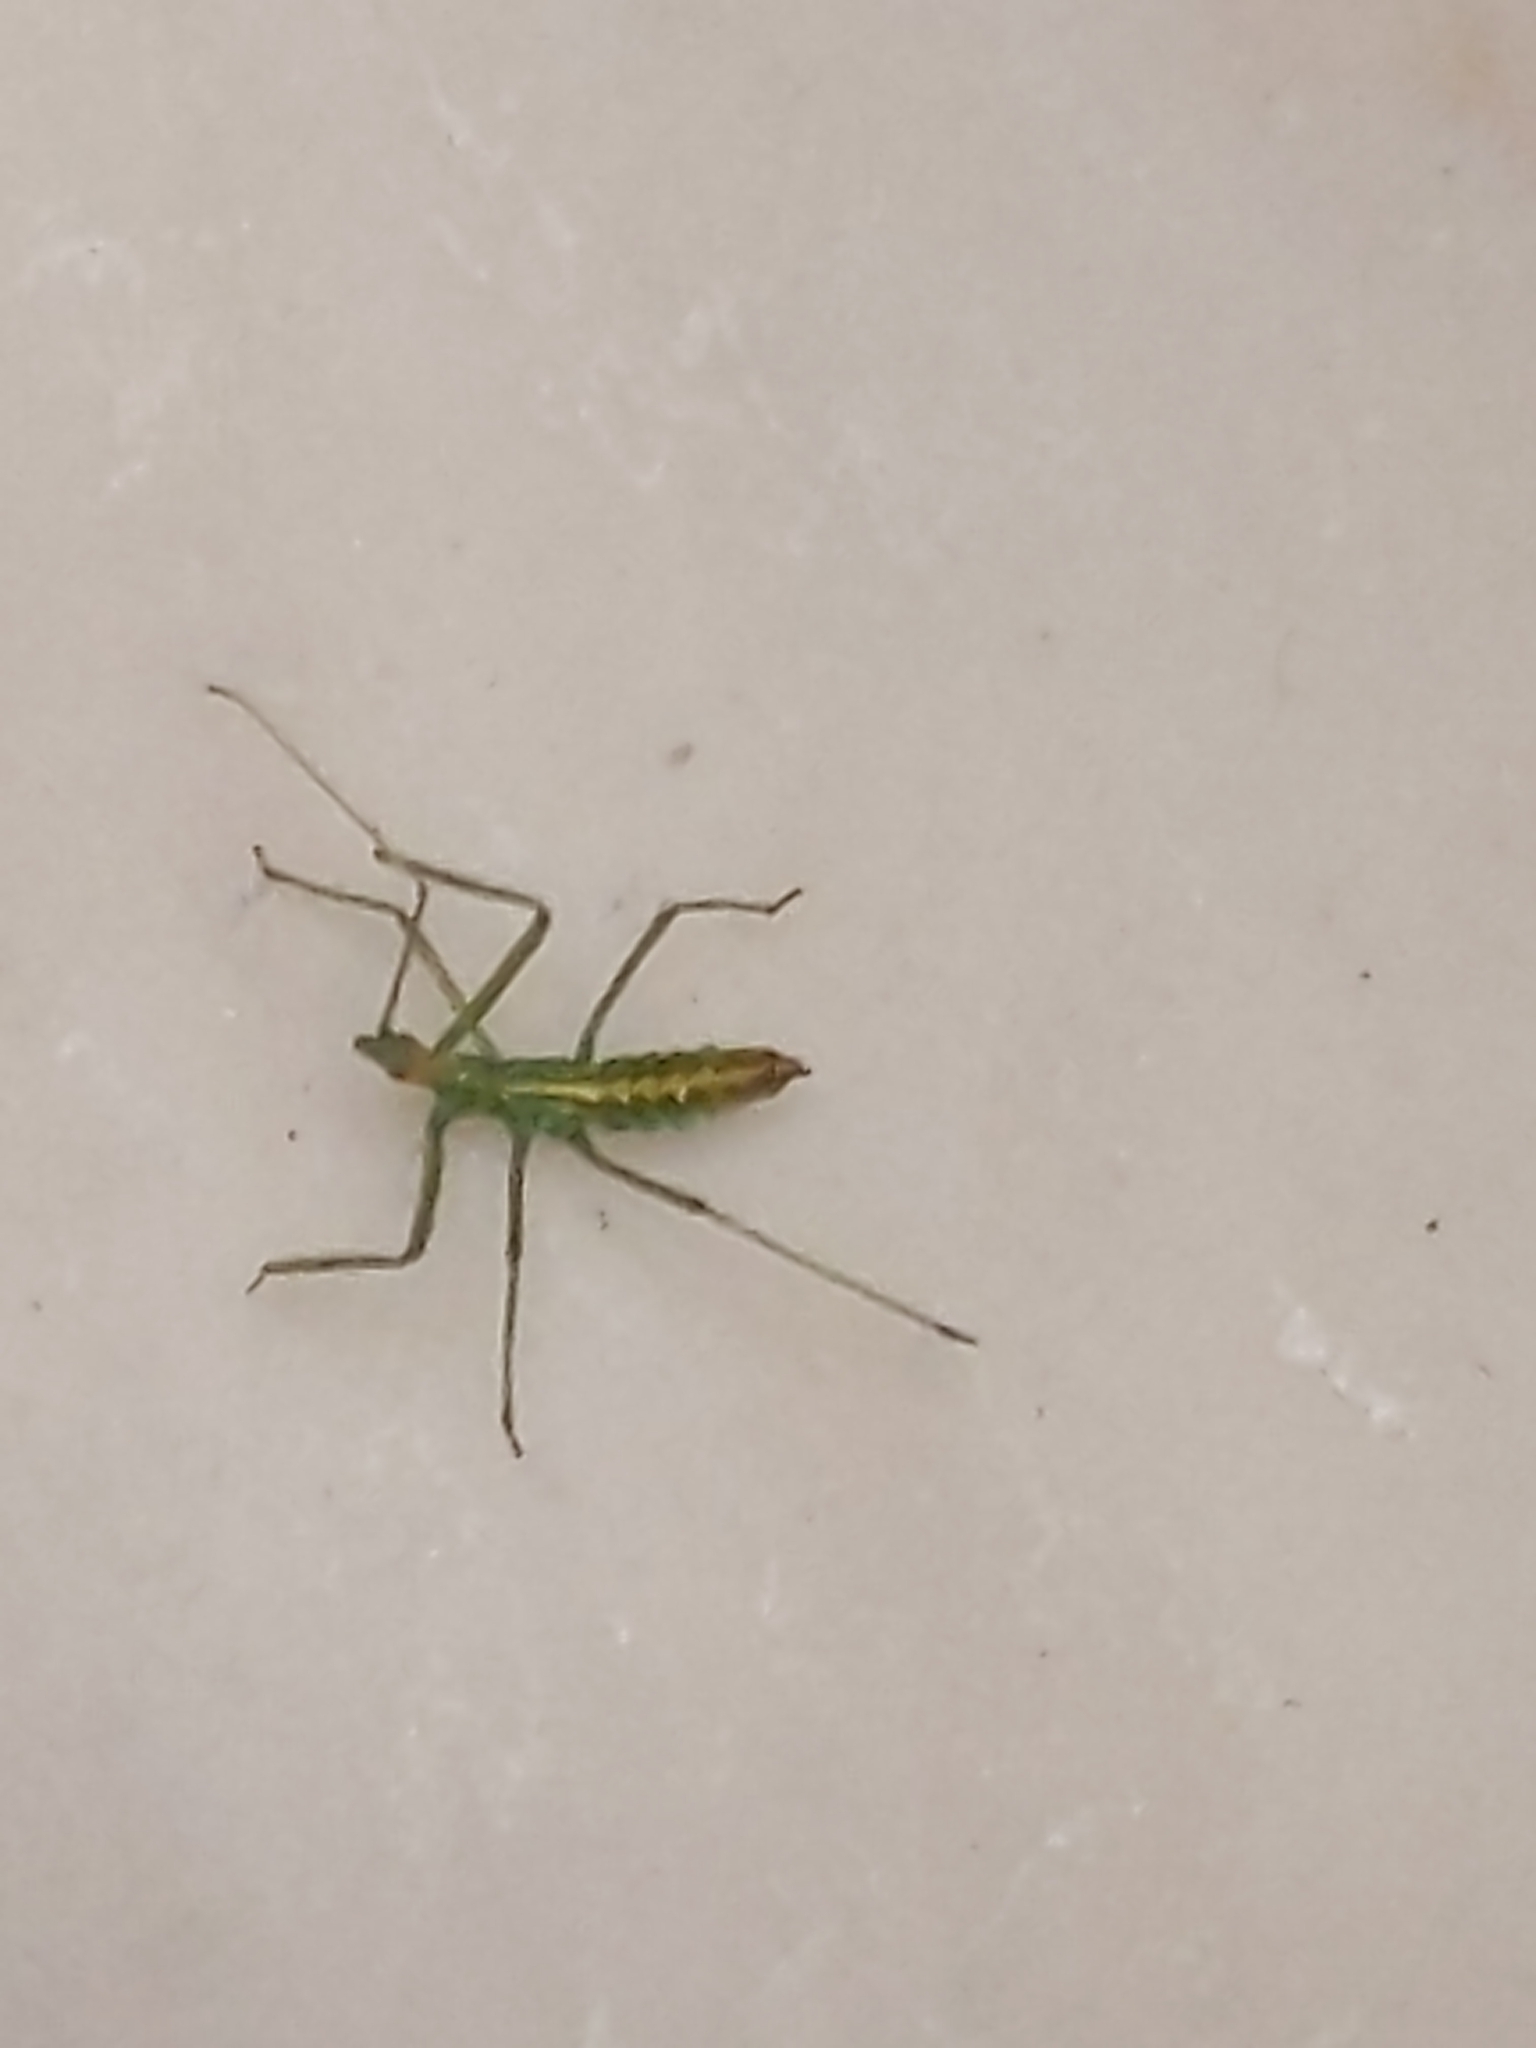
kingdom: Animalia
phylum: Arthropoda
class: Insecta
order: Hemiptera
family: Reduviidae
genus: Zelus
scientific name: Zelus luridus
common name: Pale green assassin bug
